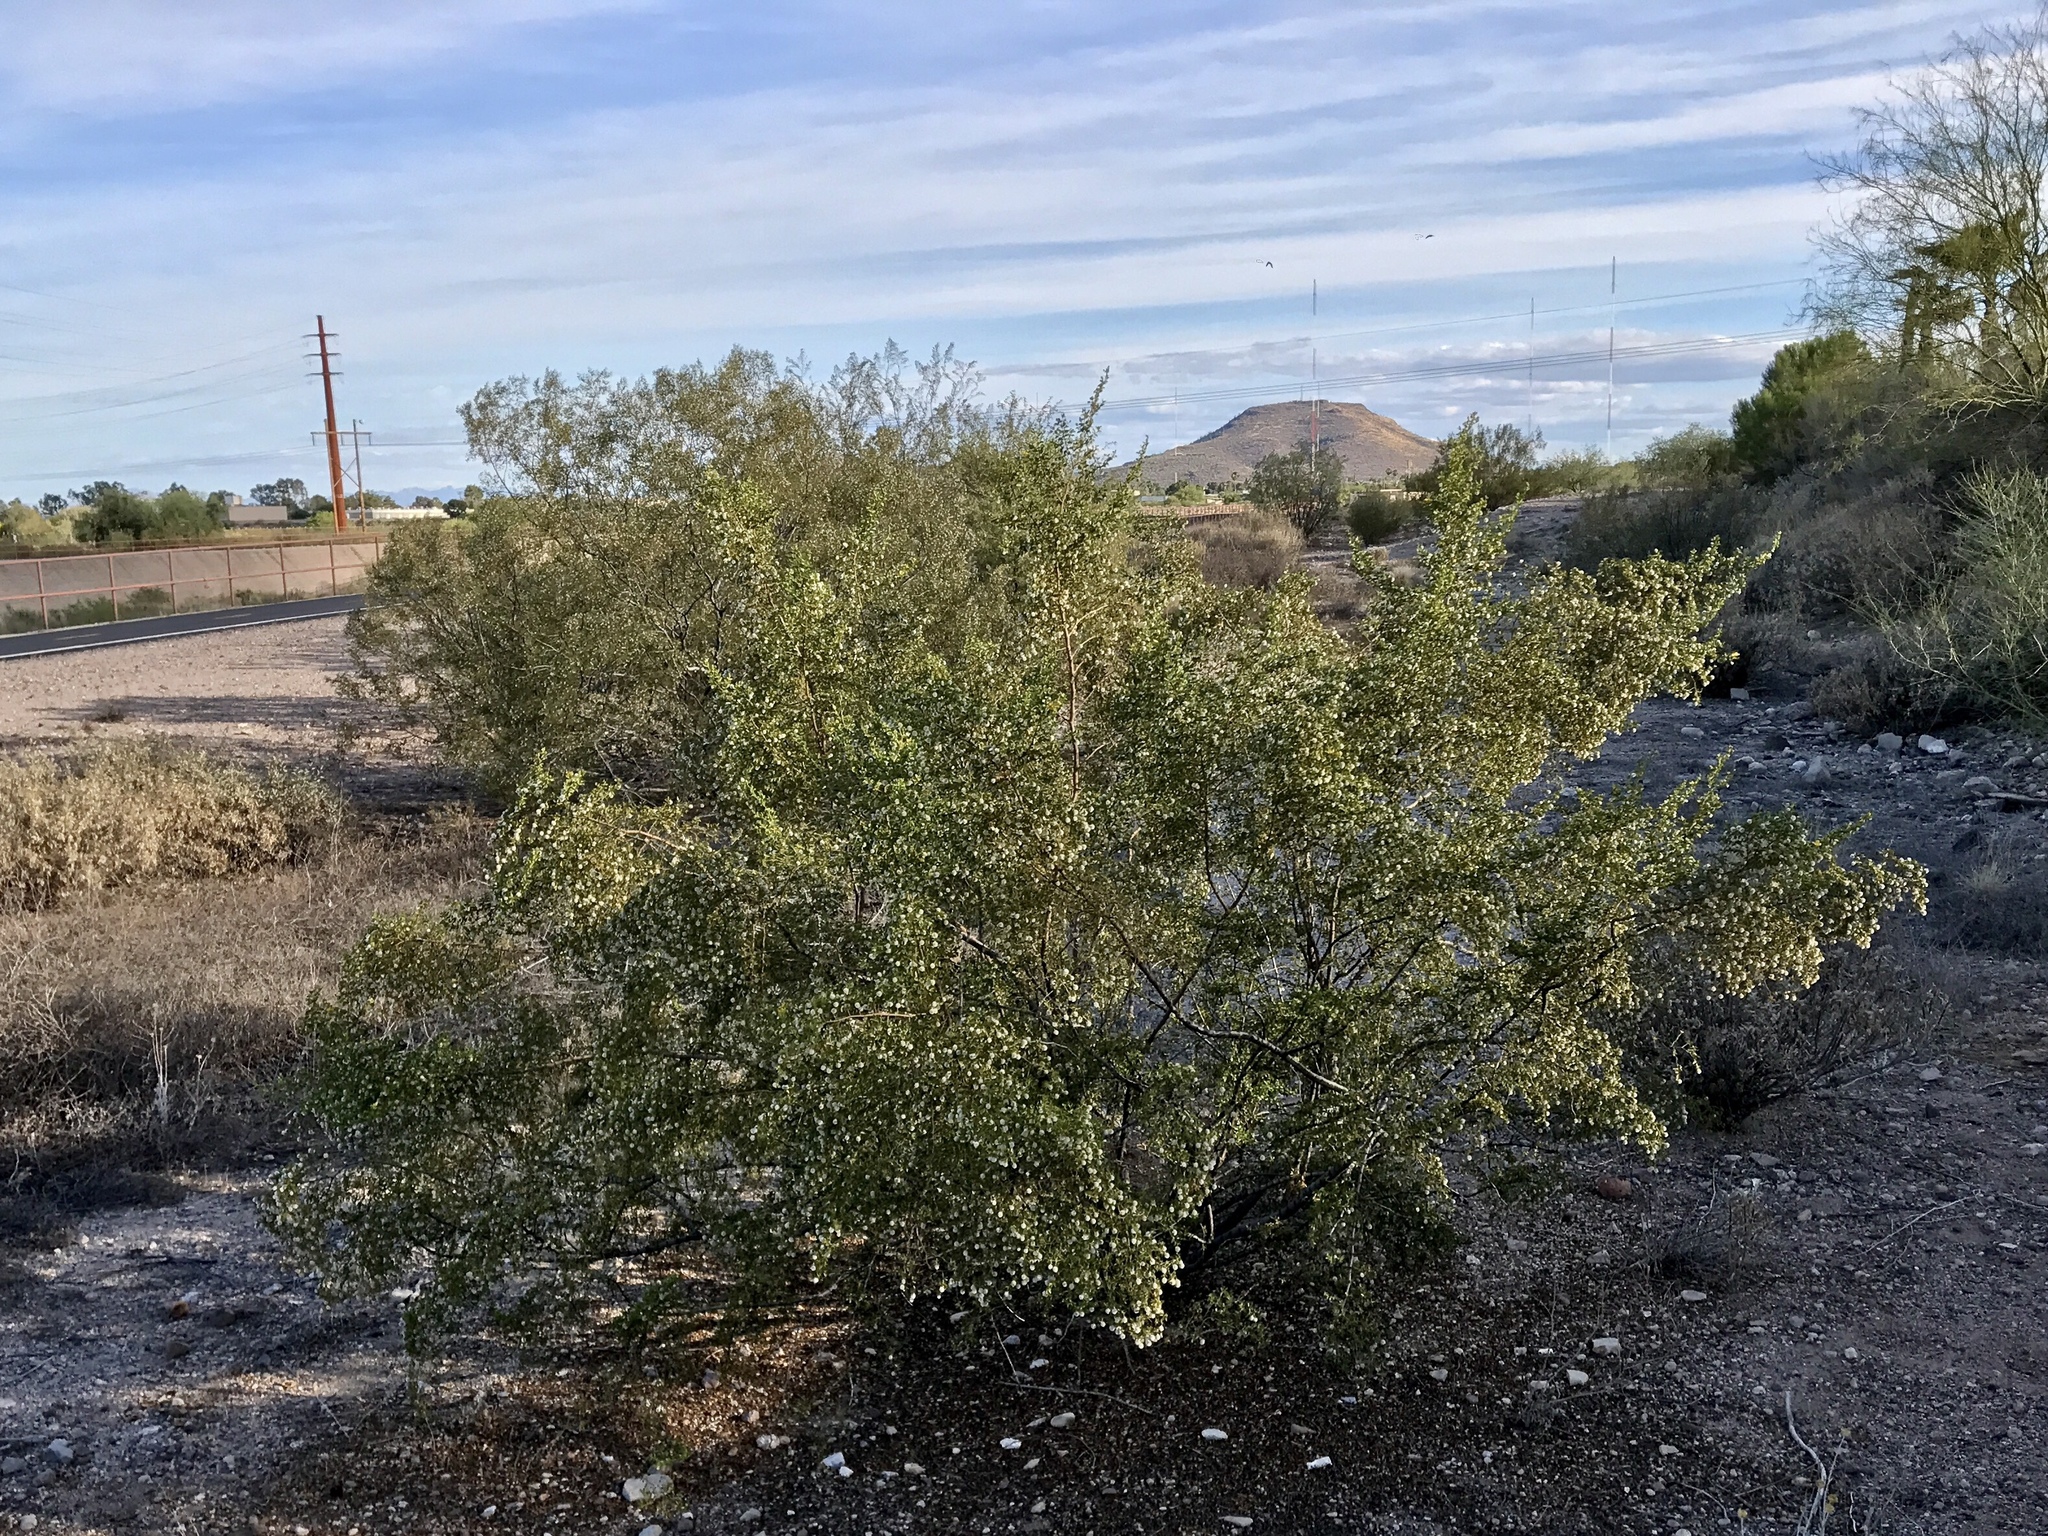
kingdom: Plantae
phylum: Tracheophyta
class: Magnoliopsida
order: Zygophyllales
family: Zygophyllaceae
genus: Larrea
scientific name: Larrea tridentata
